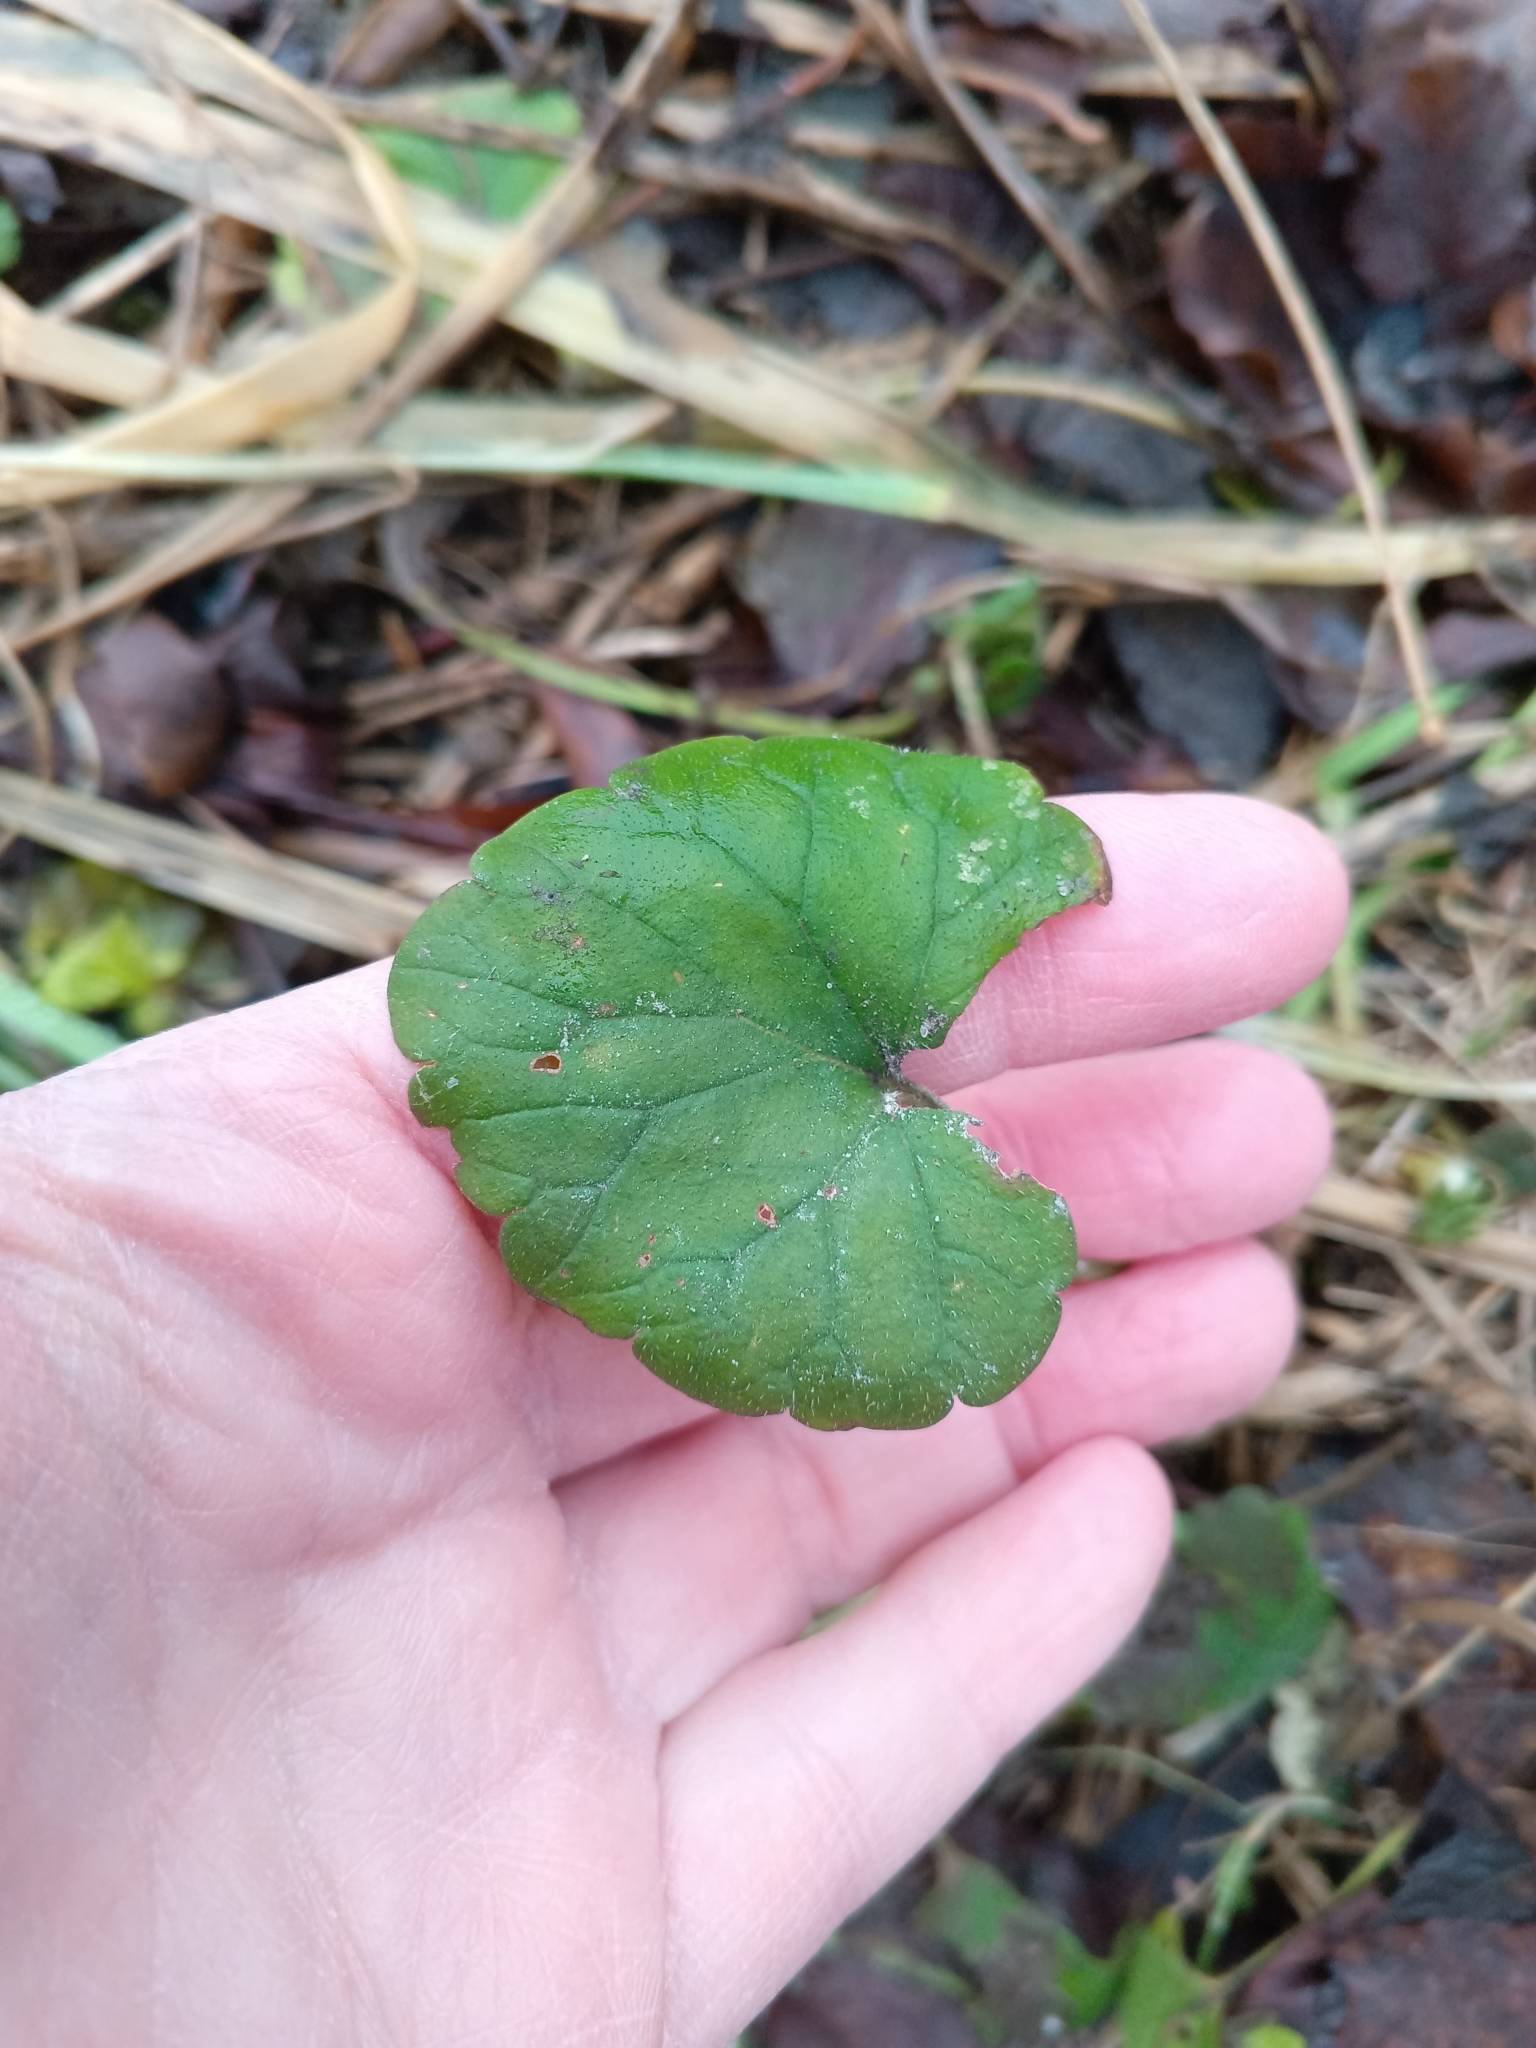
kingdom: Plantae
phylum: Tracheophyta
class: Magnoliopsida
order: Lamiales
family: Lamiaceae
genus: Glechoma
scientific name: Glechoma hederacea
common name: Ground ivy
